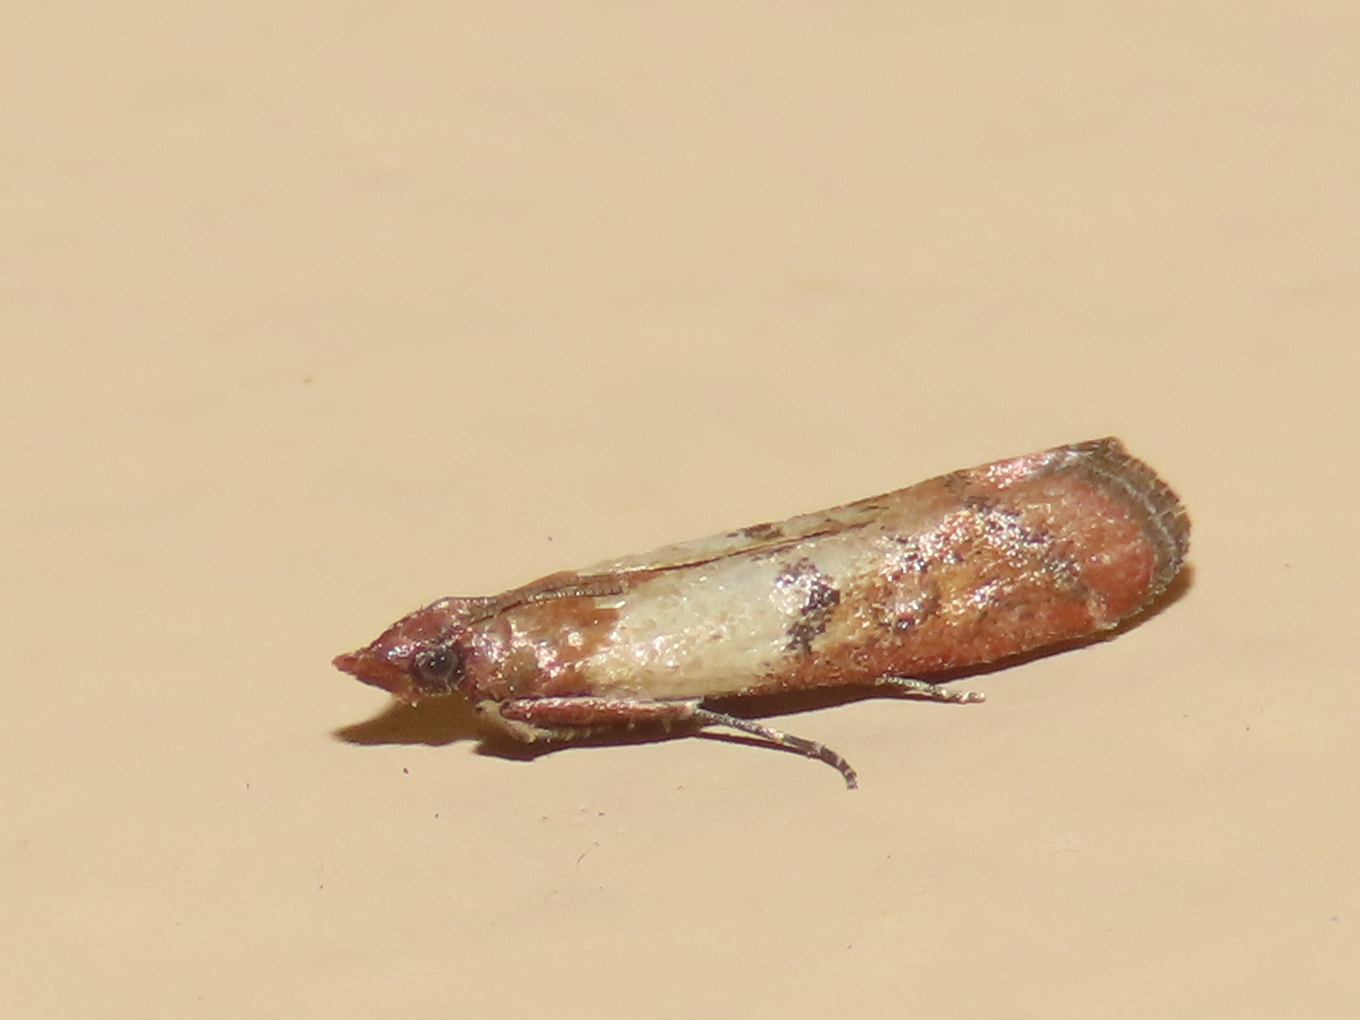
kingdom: Animalia
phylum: Arthropoda
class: Insecta
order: Lepidoptera
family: Pyralidae
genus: Plodia
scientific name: Plodia interpunctella
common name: Indian meal moth
